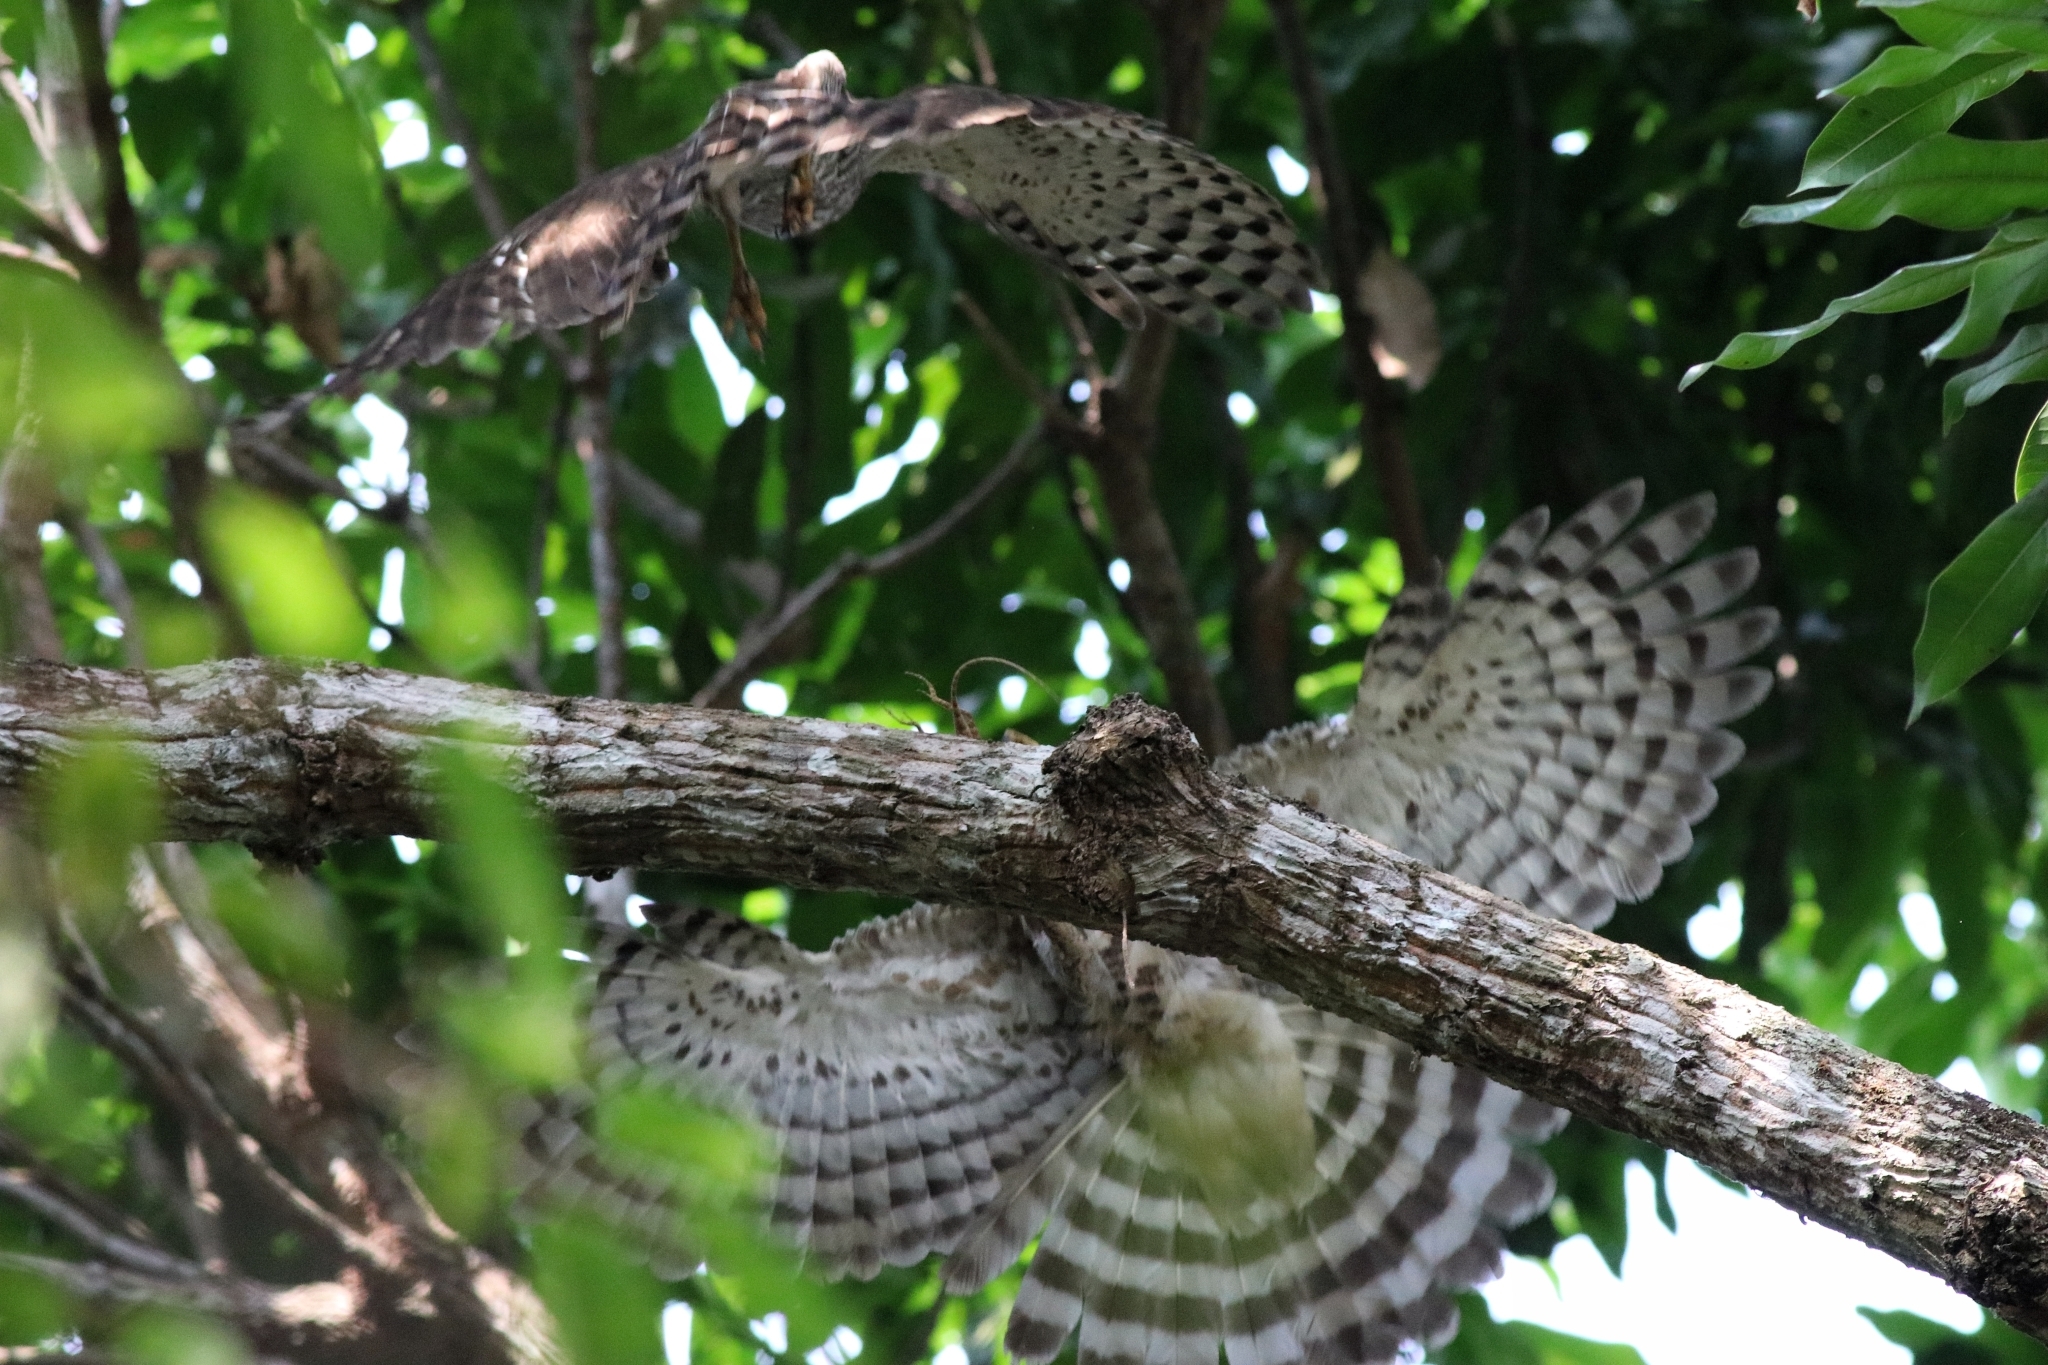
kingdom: Animalia
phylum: Chordata
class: Aves
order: Accipitriformes
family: Accipitridae
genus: Accipiter
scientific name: Accipiter trivirgatus
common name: Crested goshawk
